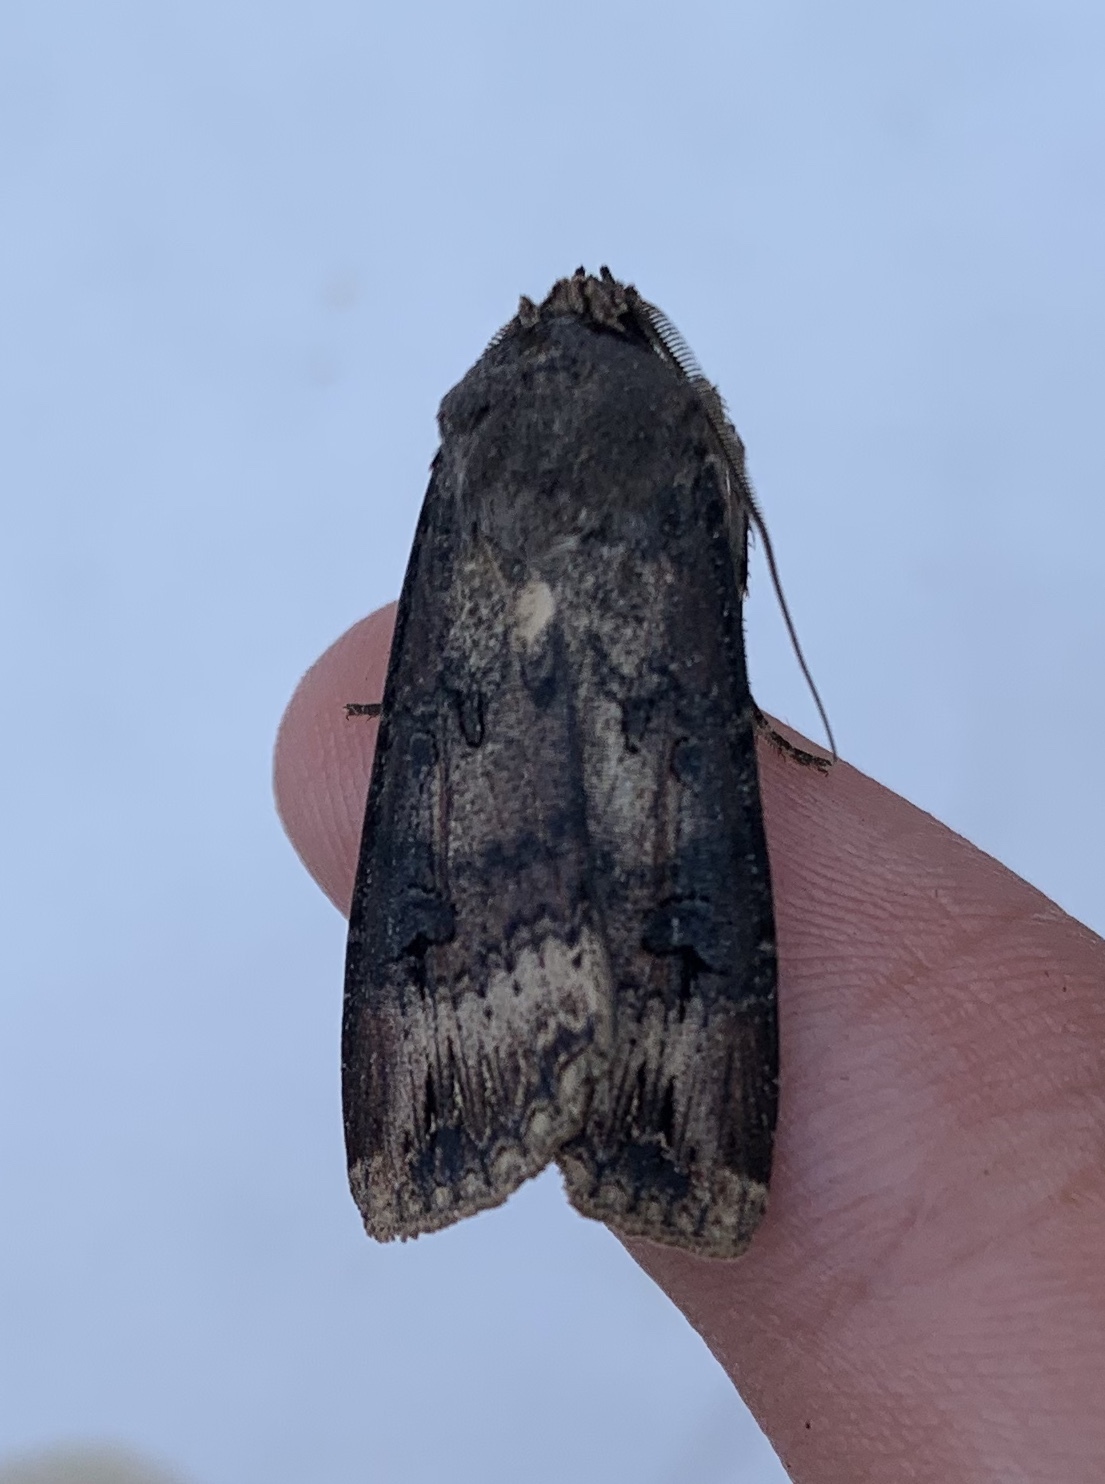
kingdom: Animalia
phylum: Arthropoda
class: Insecta
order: Lepidoptera
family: Noctuidae
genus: Agrotis
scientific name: Agrotis ipsilon
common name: Dark sword-grass
